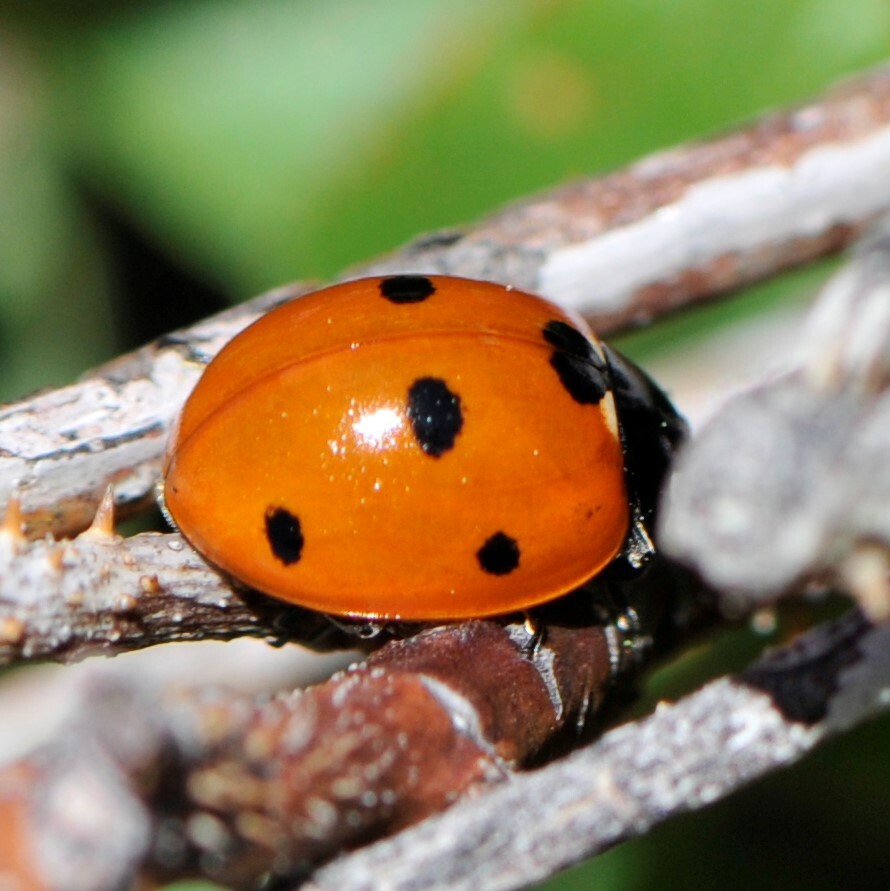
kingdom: Animalia
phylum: Arthropoda
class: Insecta
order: Coleoptera
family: Coccinellidae
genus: Coccinella
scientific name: Coccinella septempunctata
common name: Sevenspotted lady beetle
